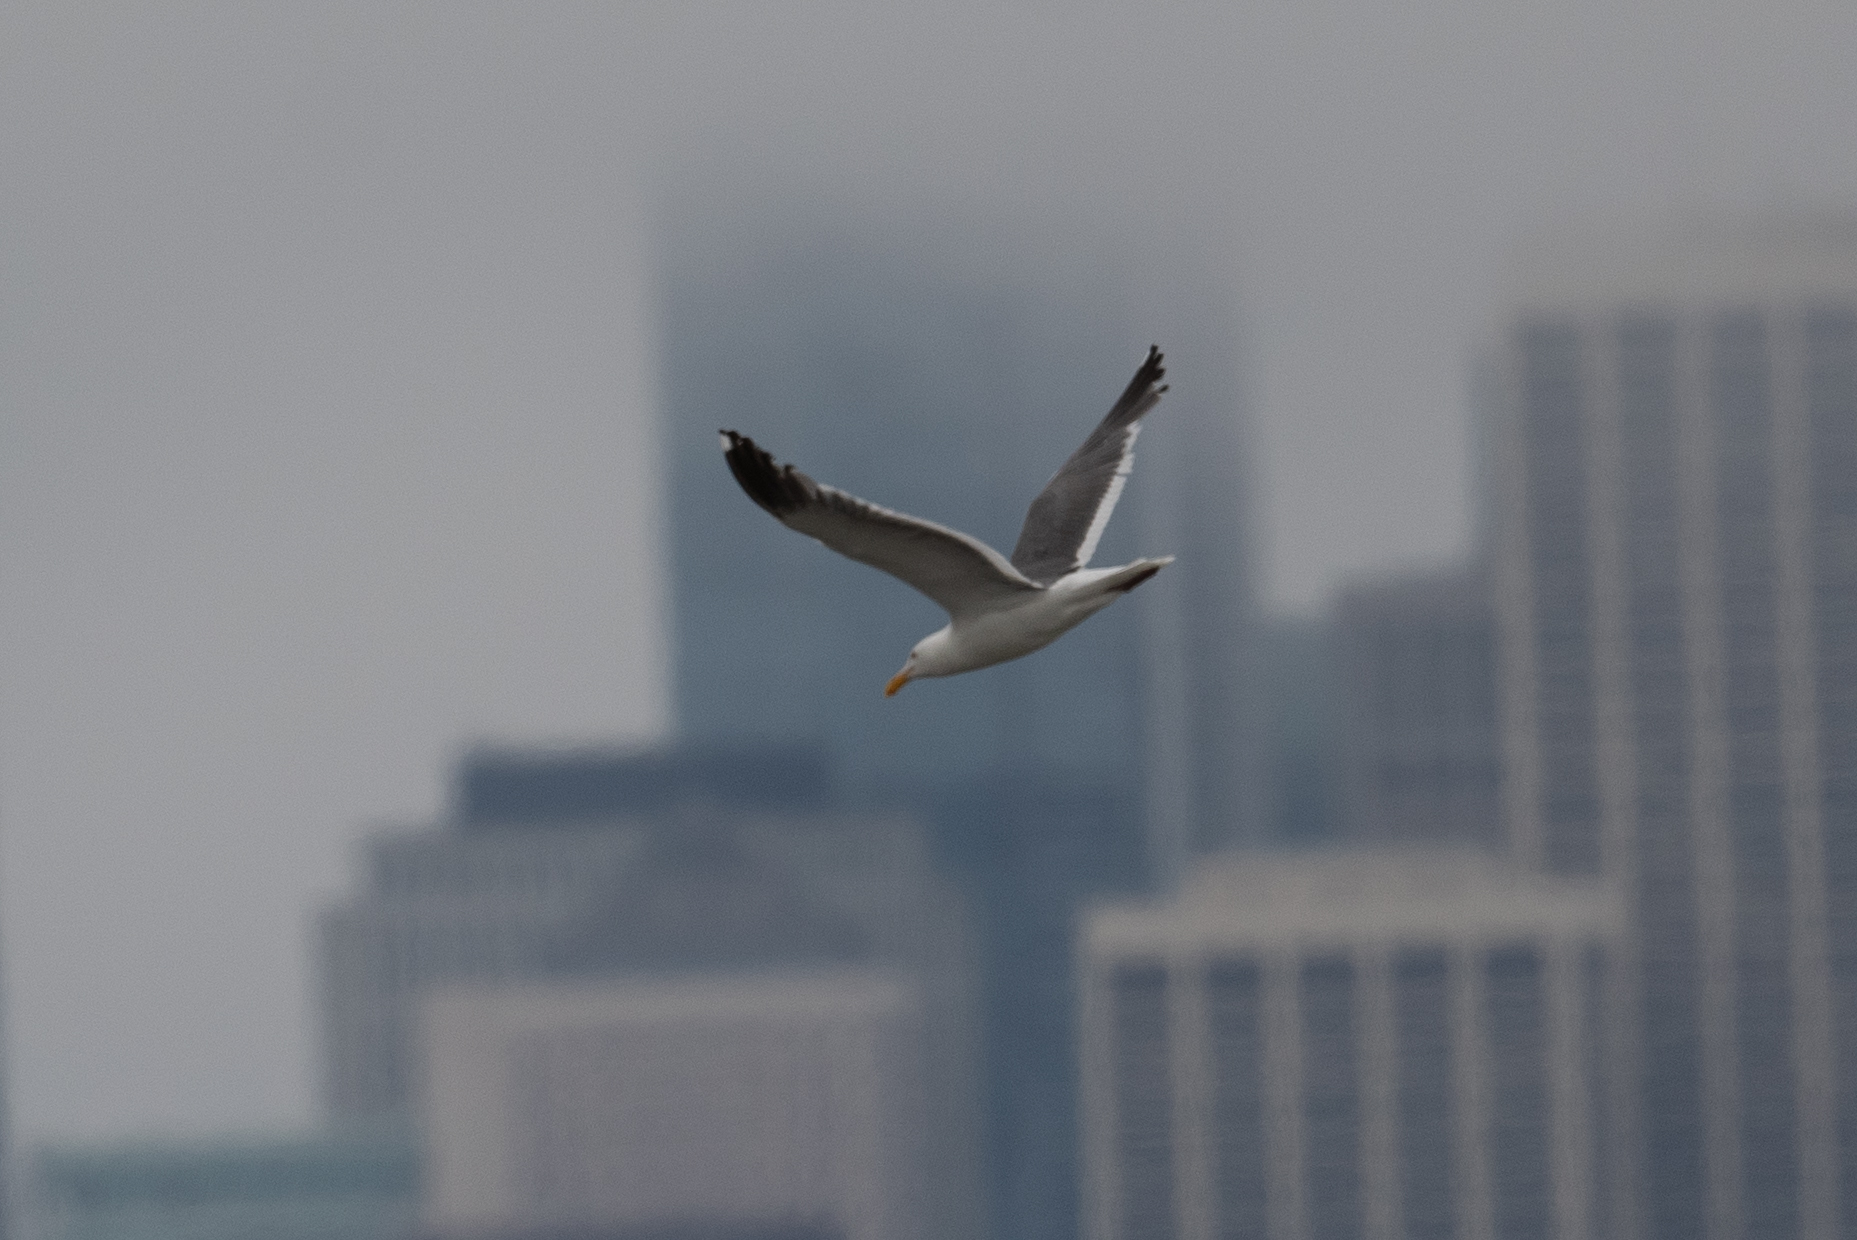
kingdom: Animalia
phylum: Chordata
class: Aves
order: Charadriiformes
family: Laridae
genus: Larus
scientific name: Larus occidentalis
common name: Western gull
